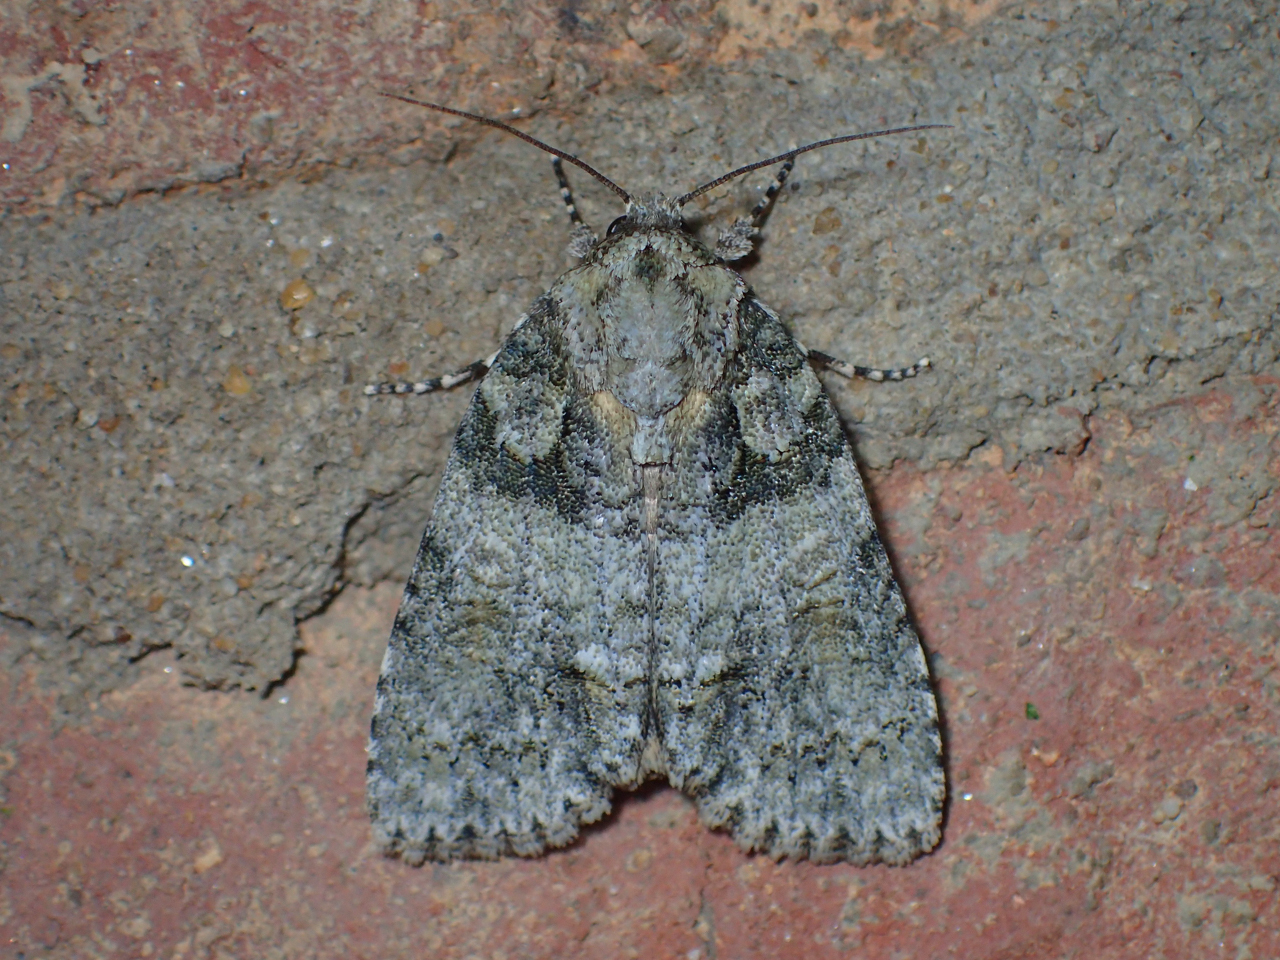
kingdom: Animalia
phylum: Arthropoda
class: Insecta
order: Lepidoptera
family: Noctuidae
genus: Acronicta
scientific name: Acronicta increta
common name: Eclipsed oak dagger
